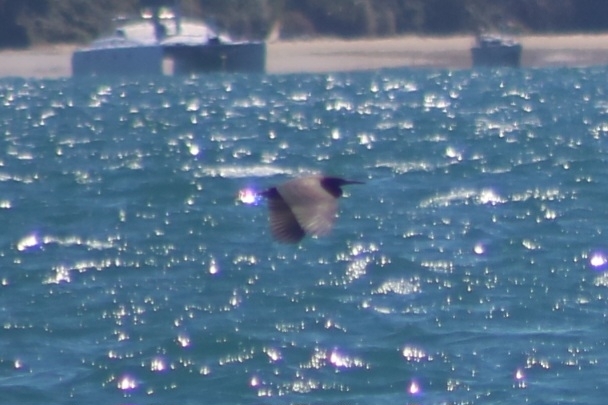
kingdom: Animalia
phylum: Chordata
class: Aves
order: Pelecaniformes
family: Ardeidae
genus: Egretta
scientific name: Egretta sacra
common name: Pacific reef heron
